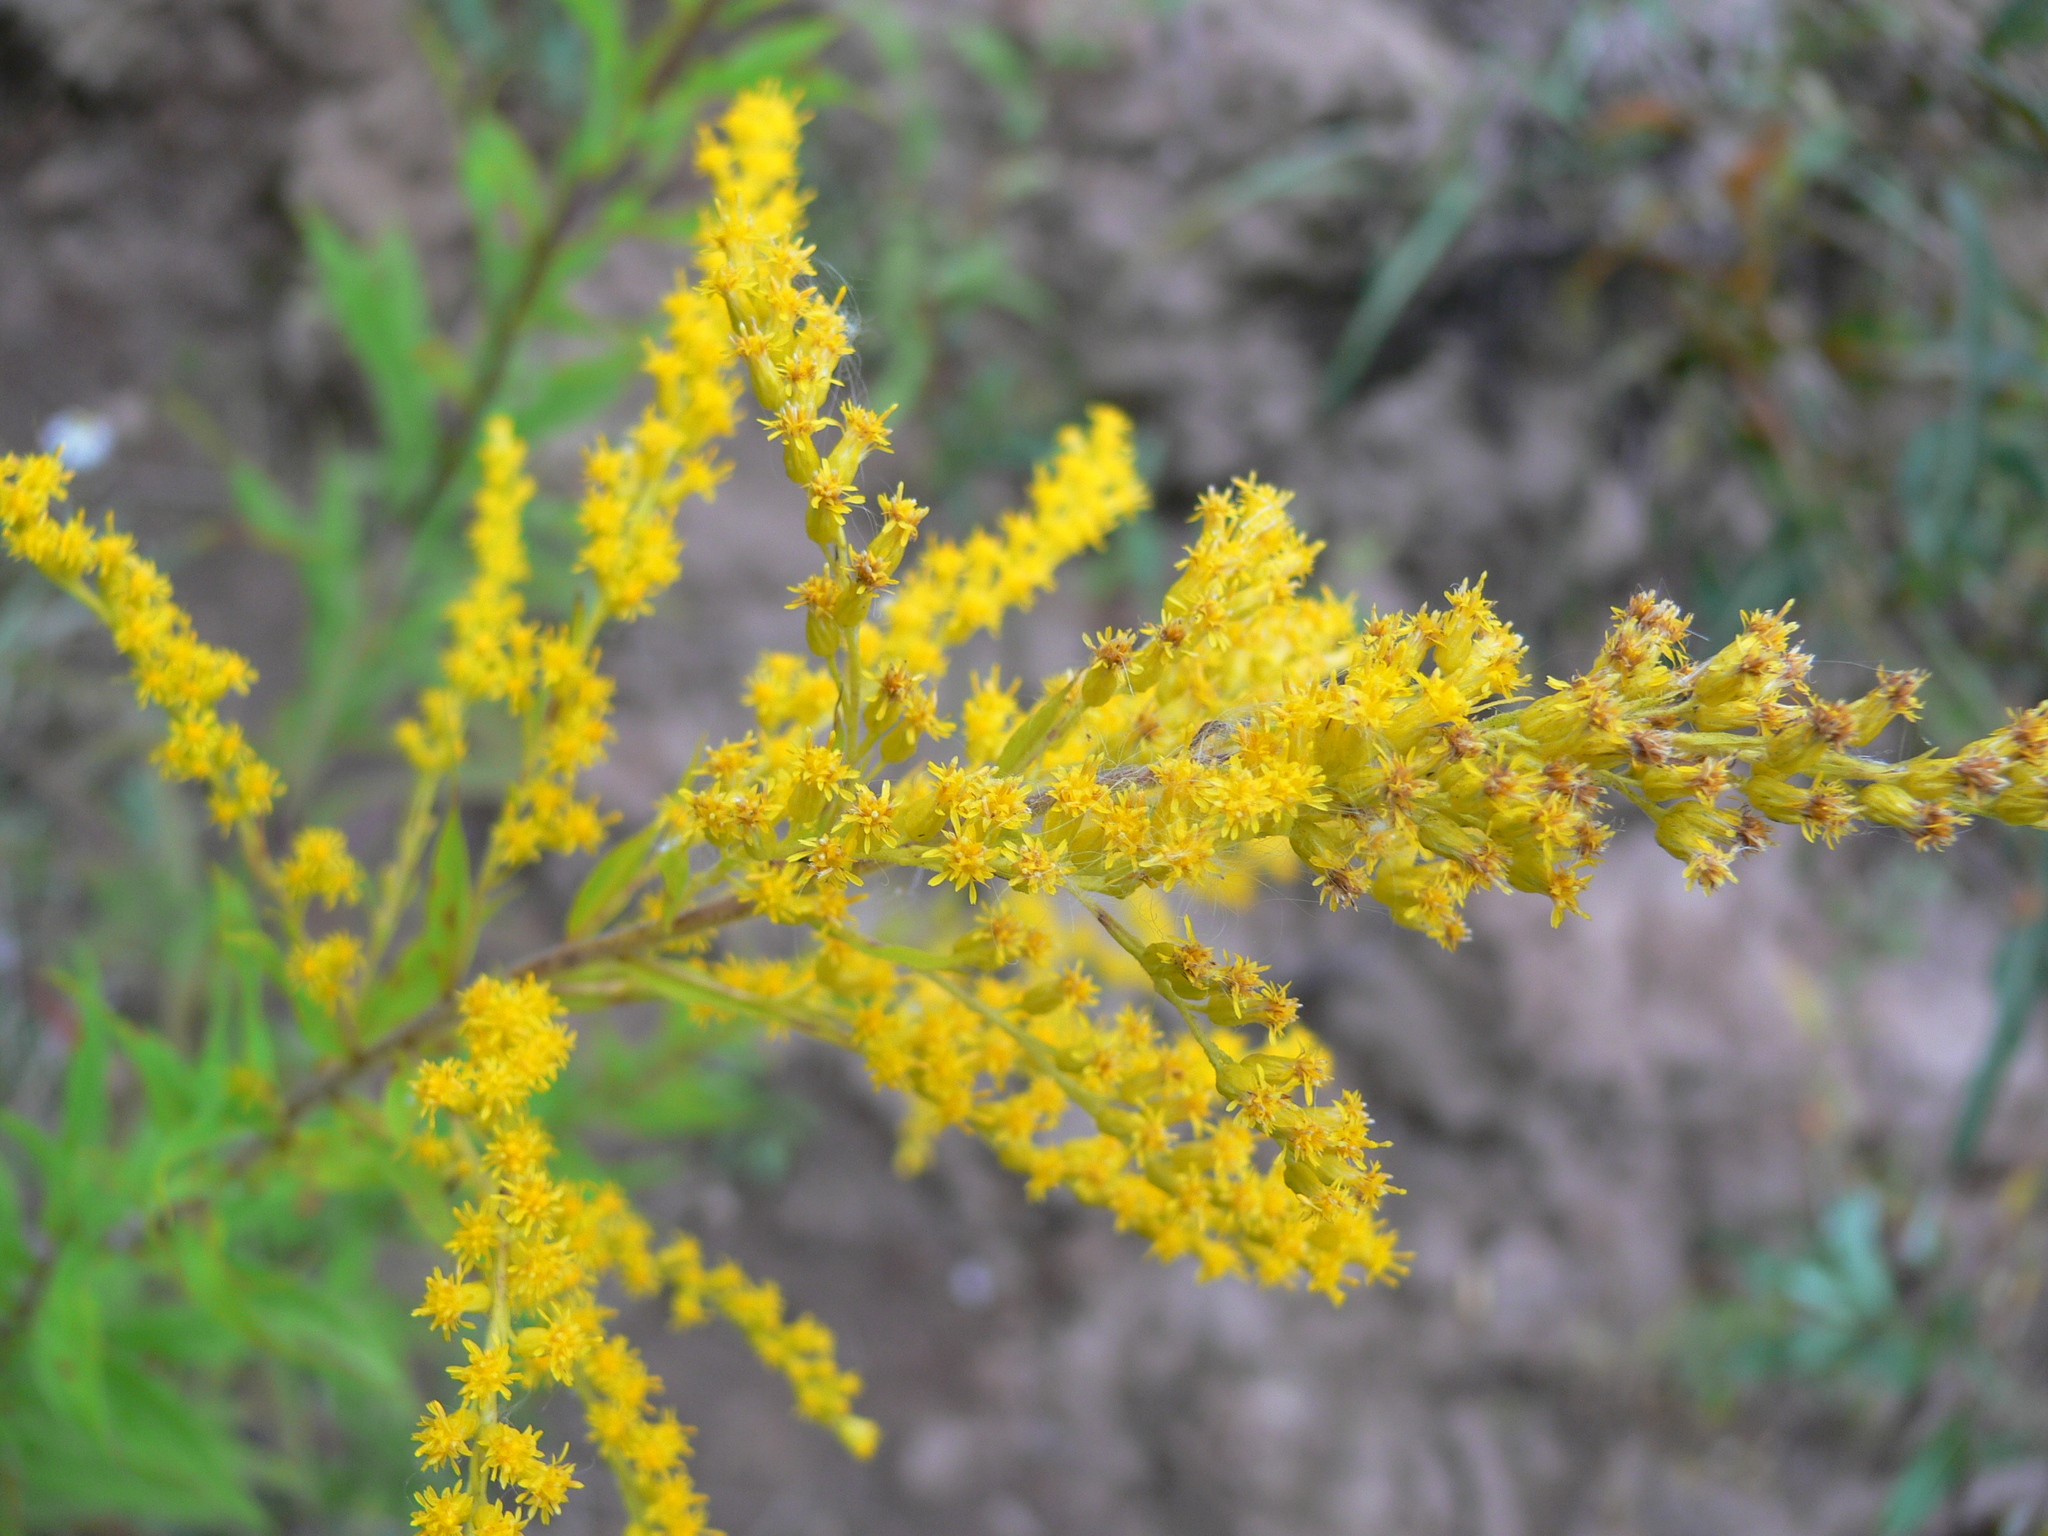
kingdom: Plantae
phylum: Tracheophyta
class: Magnoliopsida
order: Asterales
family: Asteraceae
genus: Solidago
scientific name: Solidago canadensis
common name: Canada goldenrod
